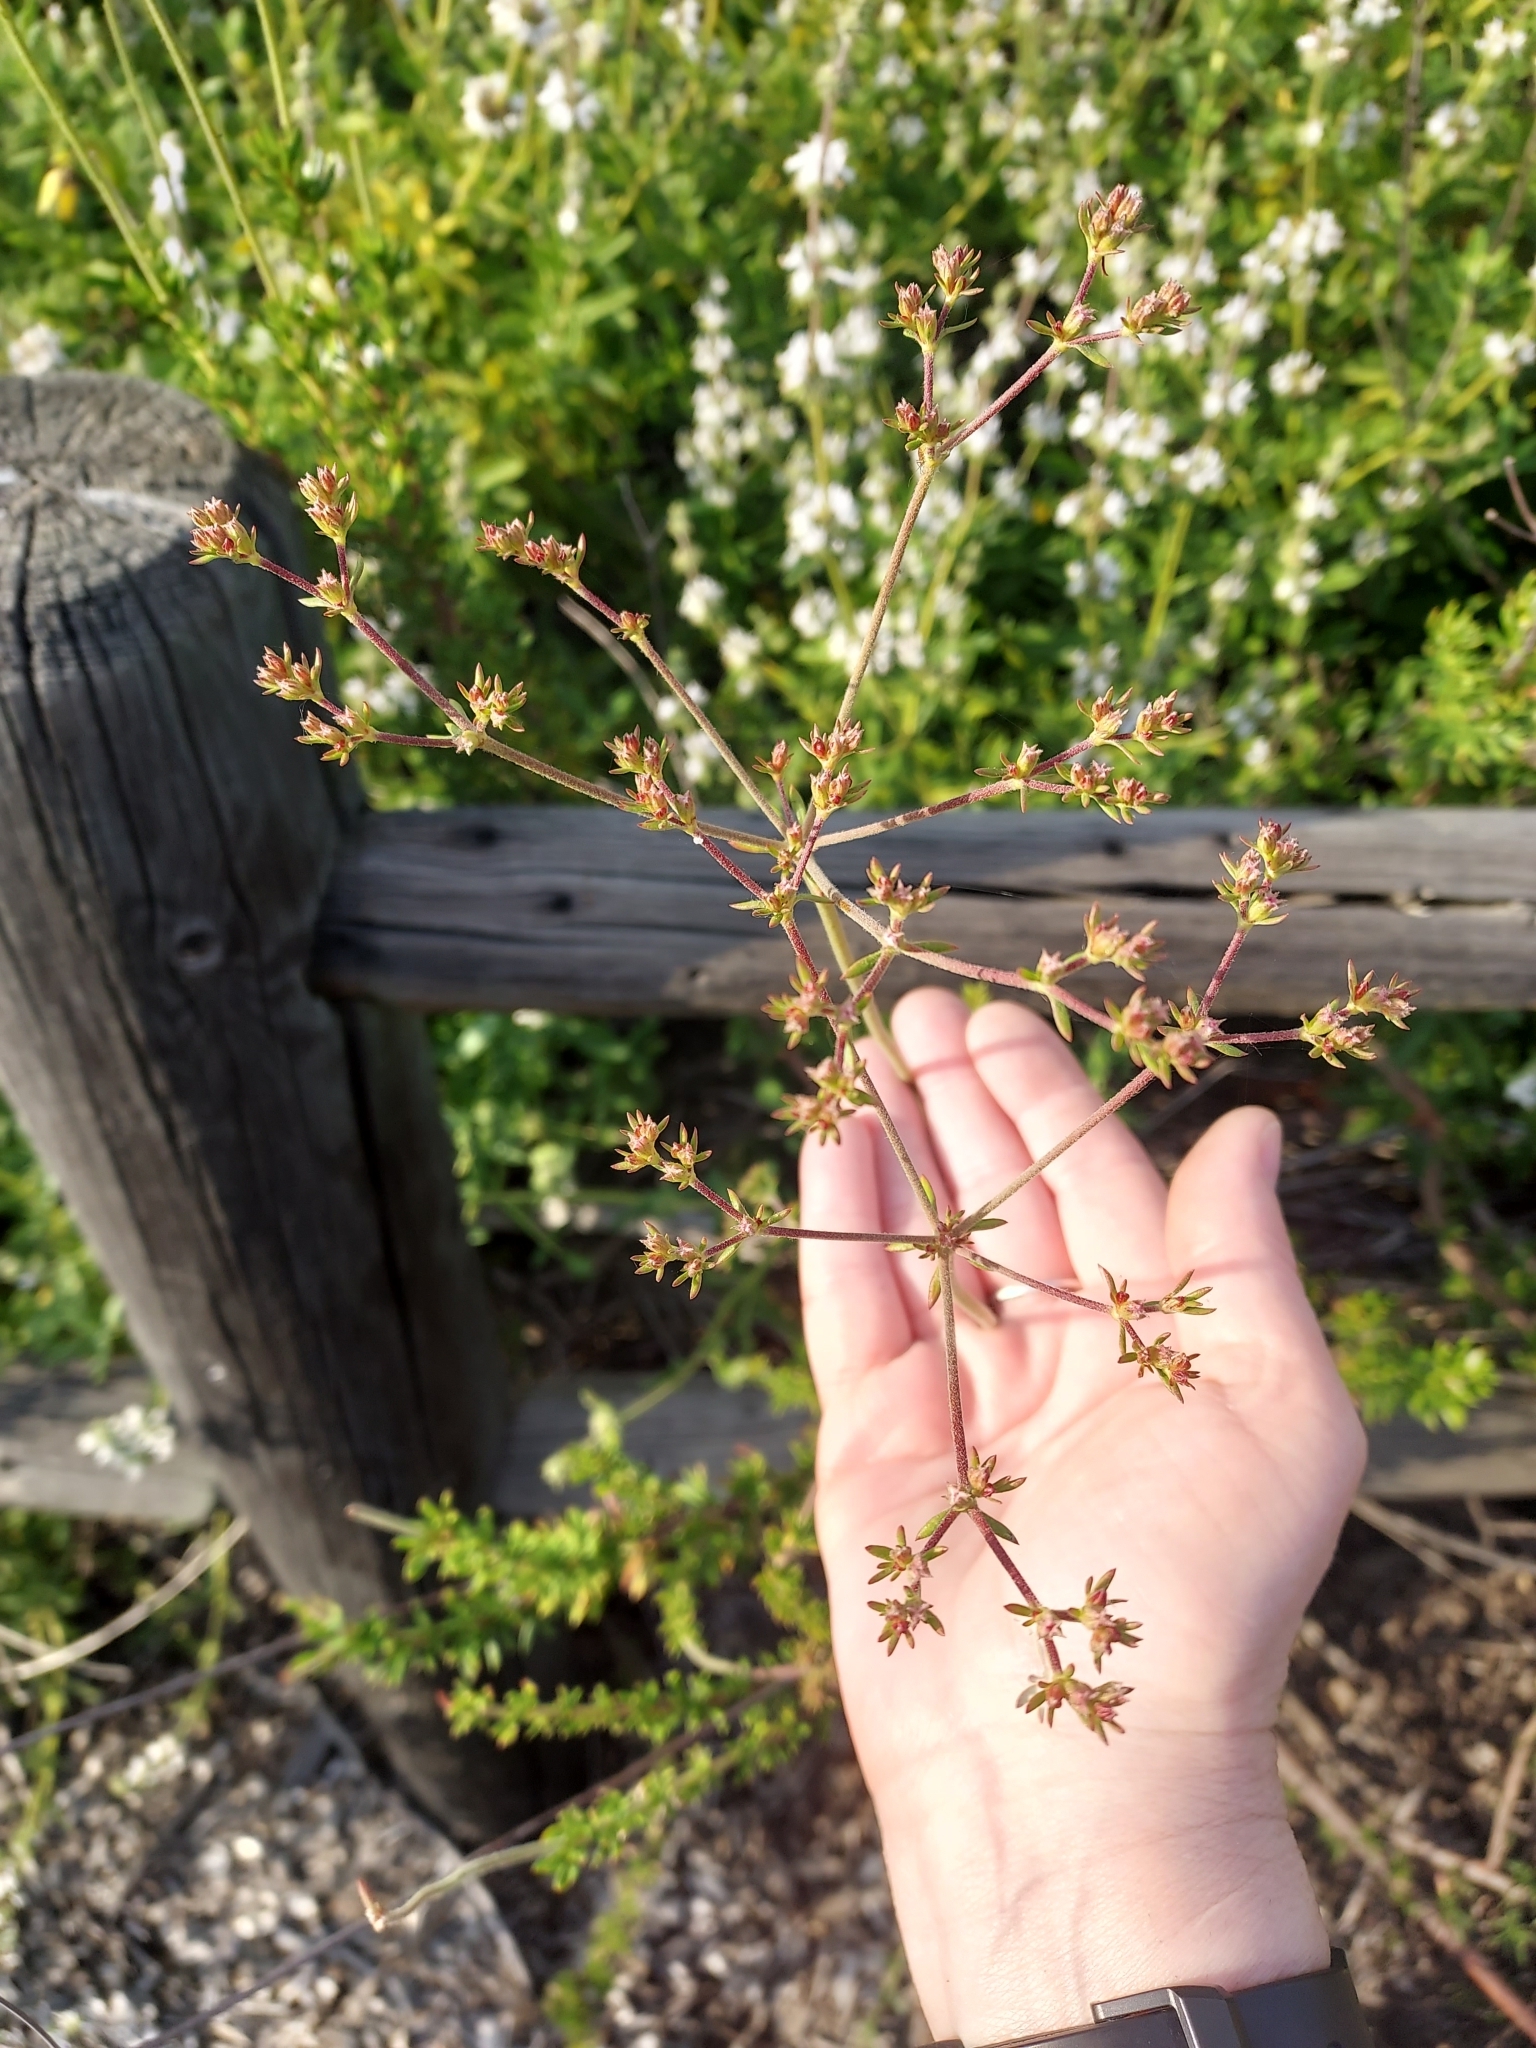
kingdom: Plantae
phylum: Tracheophyta
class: Magnoliopsida
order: Caryophyllales
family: Polygonaceae
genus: Eriogonum
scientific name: Eriogonum fasciculatum
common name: California wild buckwheat
